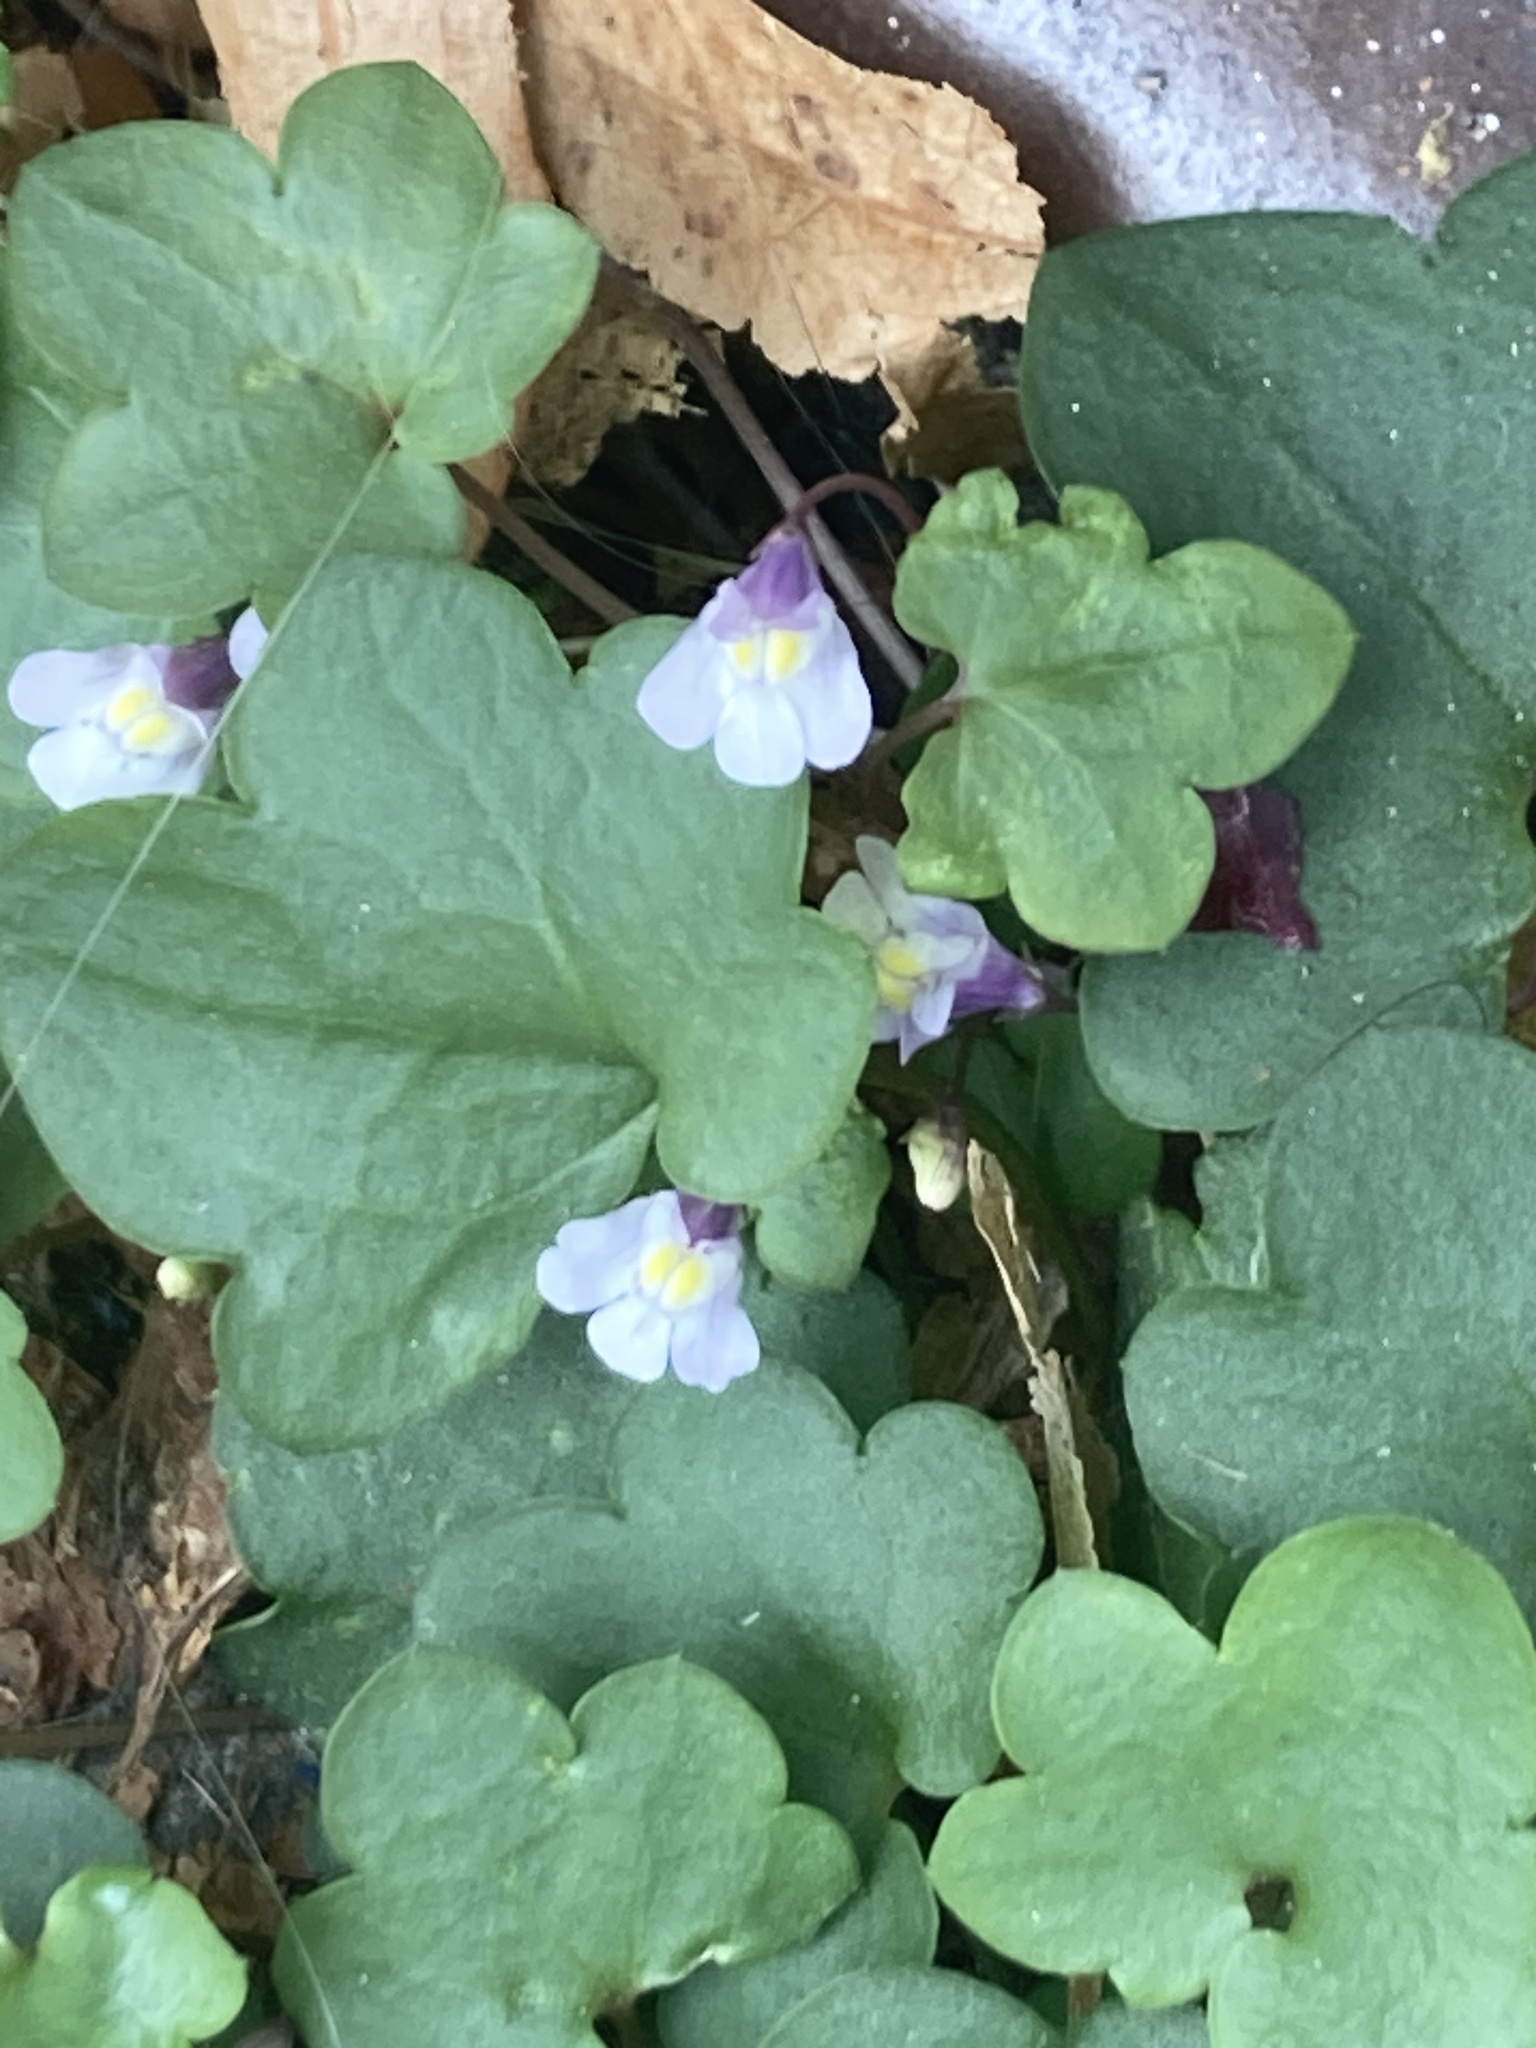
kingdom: Plantae
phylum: Tracheophyta
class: Magnoliopsida
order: Lamiales
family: Plantaginaceae
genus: Cymbalaria
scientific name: Cymbalaria muralis
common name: Ivy-leaved toadflax
